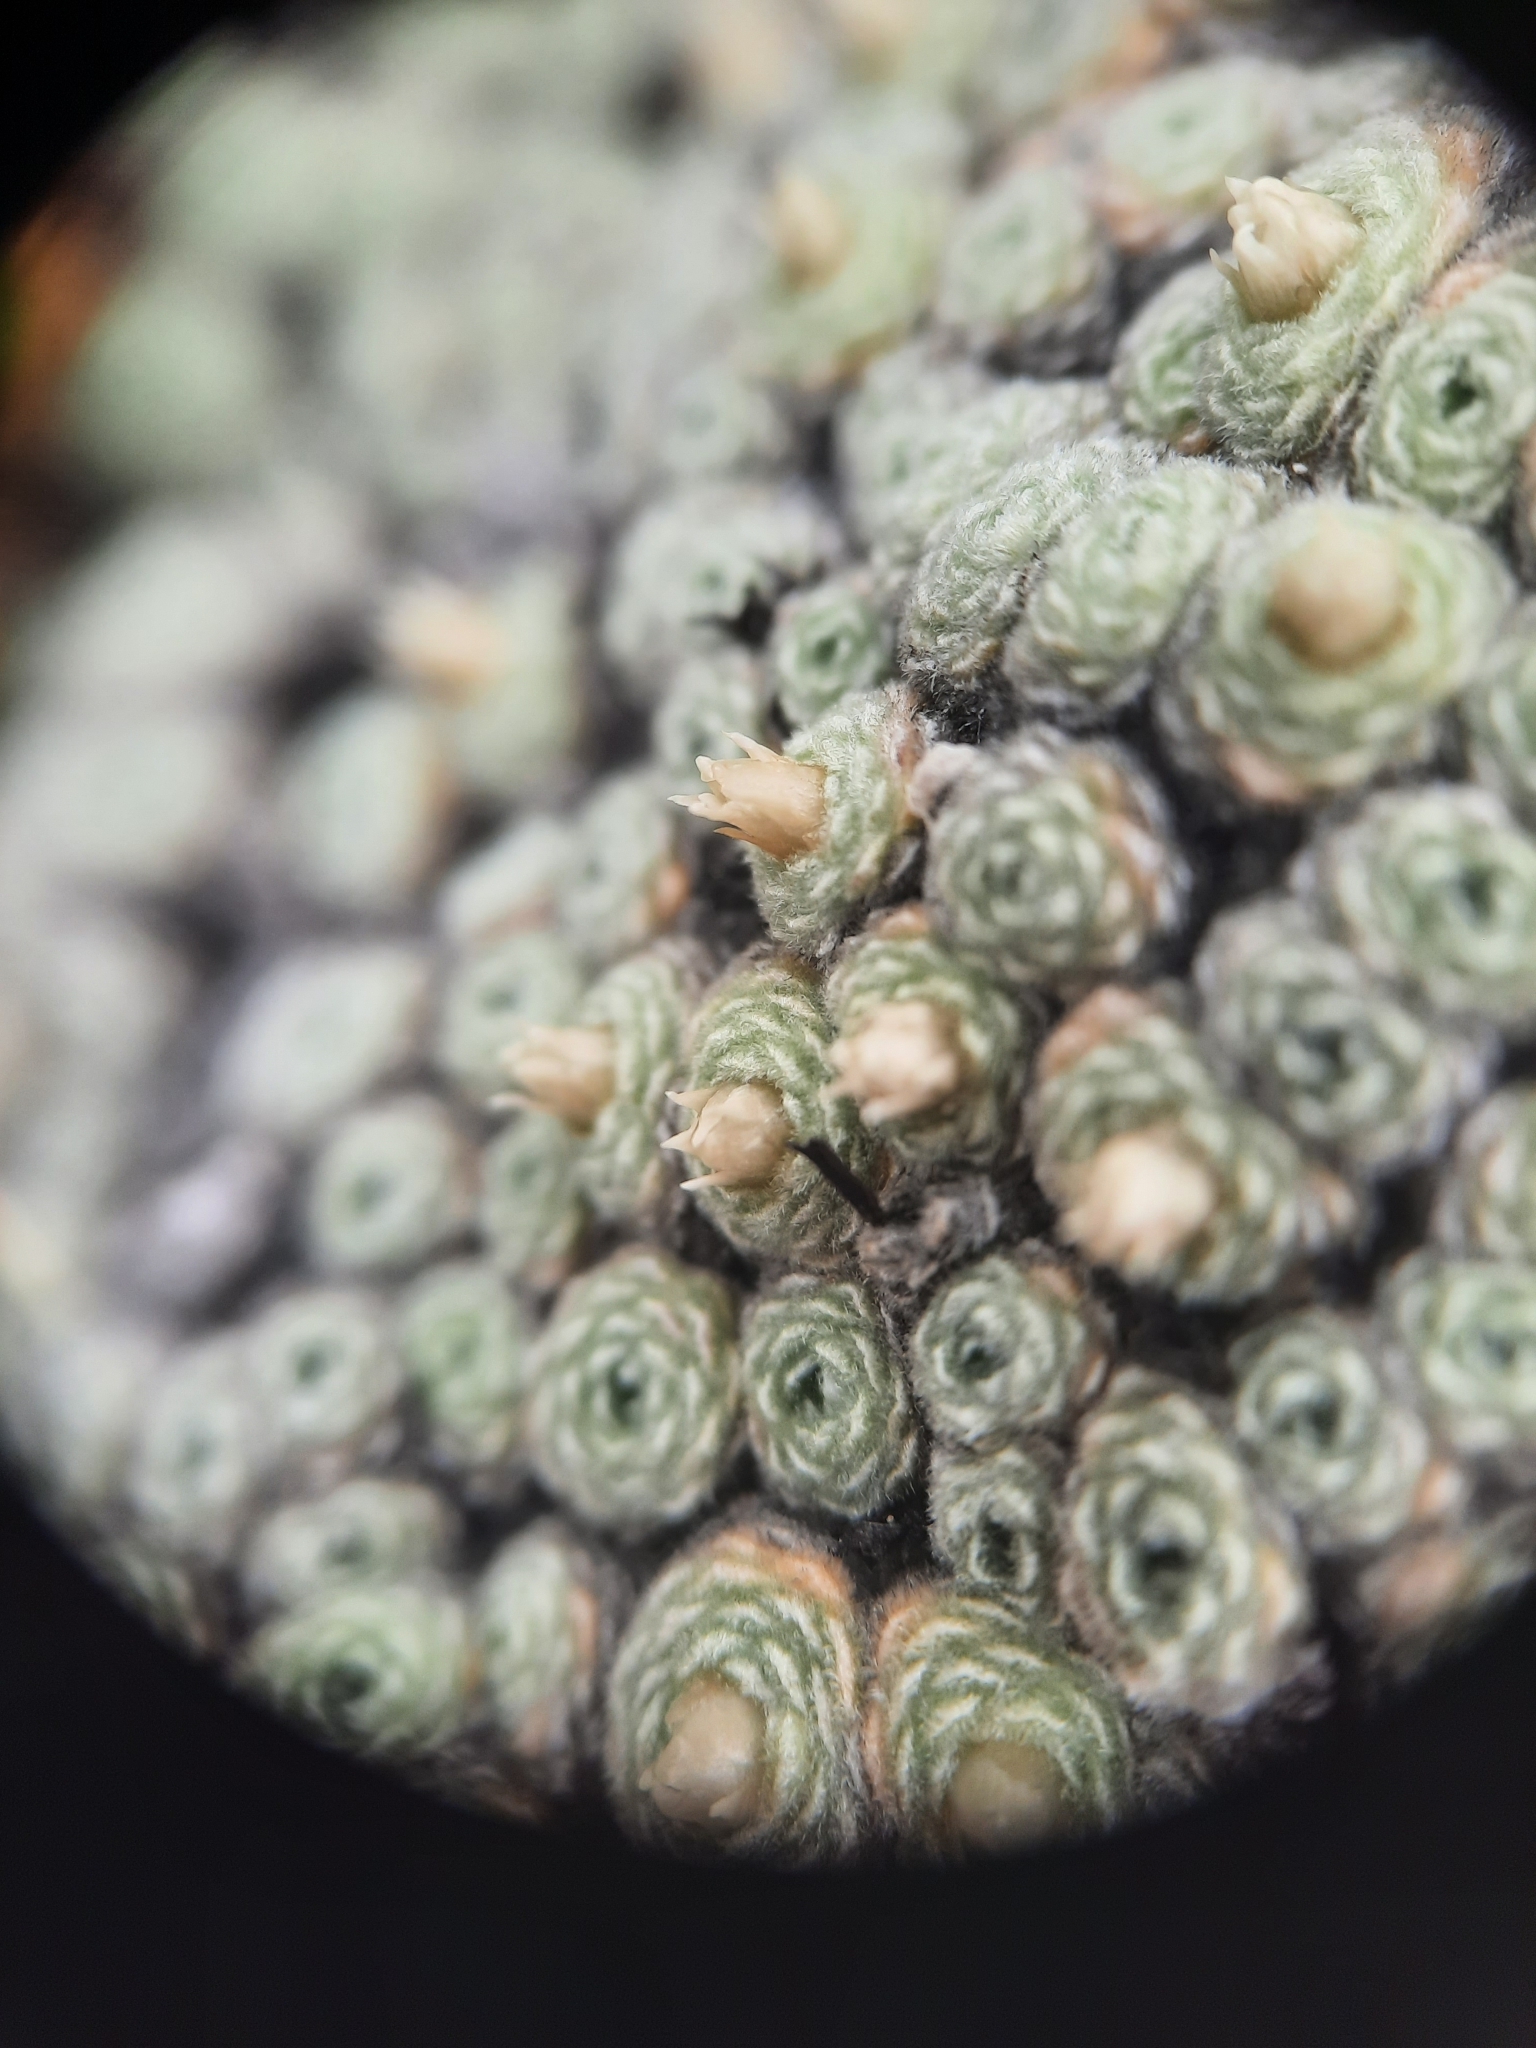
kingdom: Plantae
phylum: Tracheophyta
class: Magnoliopsida
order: Asterales
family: Asteraceae
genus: Raoulia
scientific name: Raoulia mammillaris
